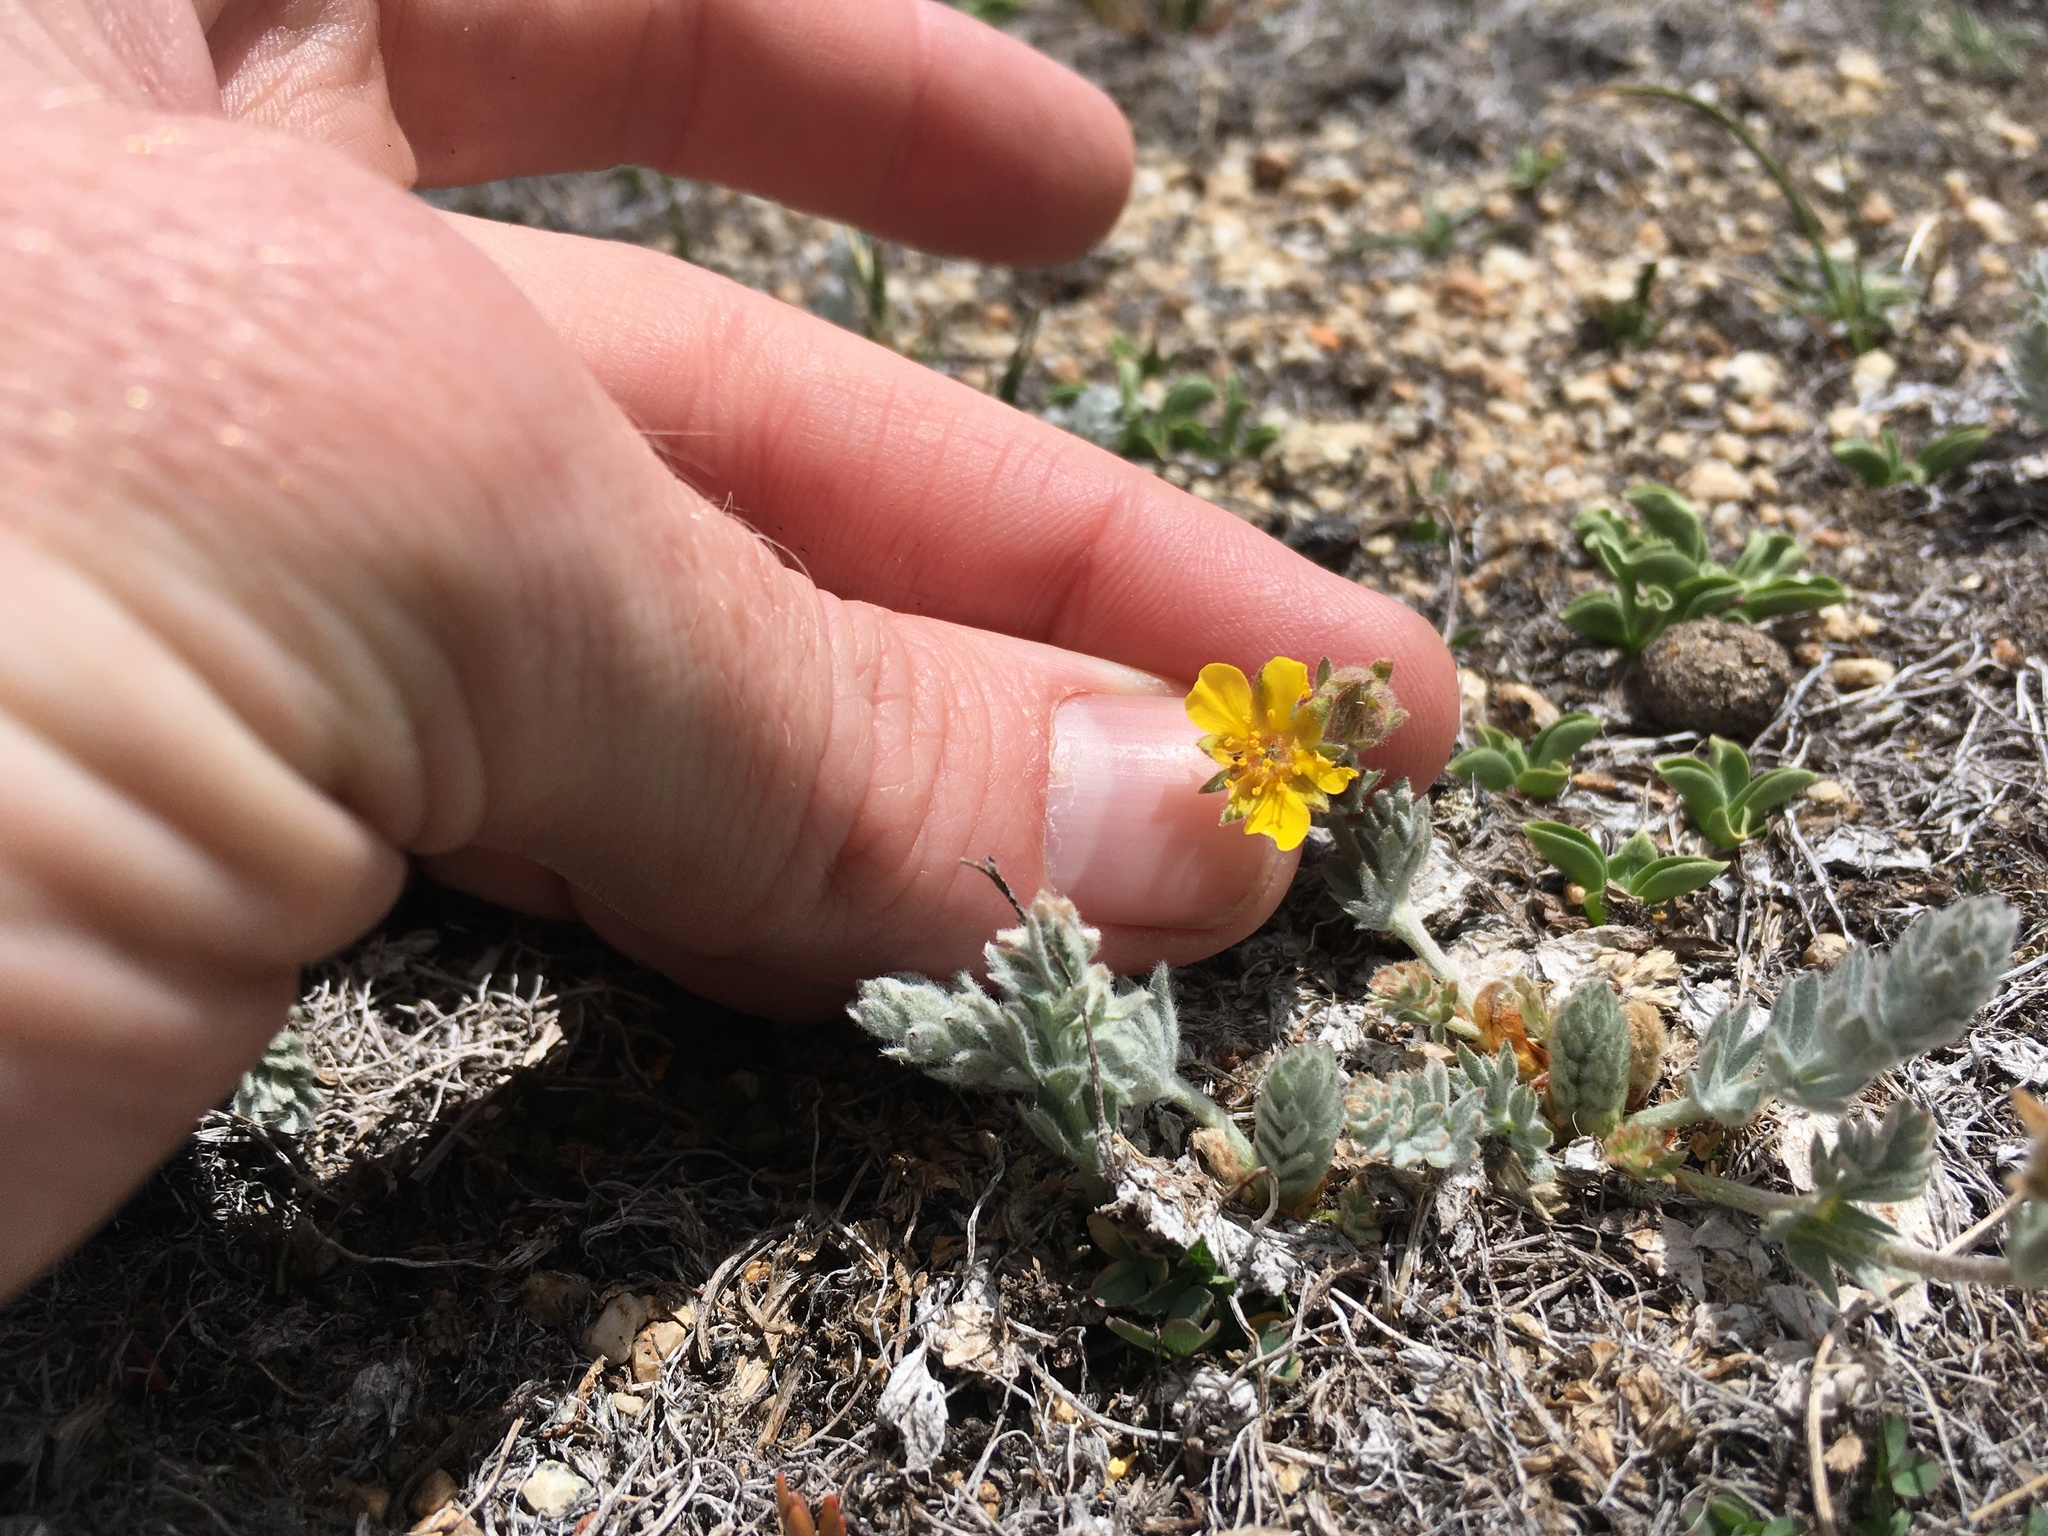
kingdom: Plantae
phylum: Tracheophyta
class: Magnoliopsida
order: Rosales
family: Rosaceae
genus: Potentilla
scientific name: Potentilla breweri
